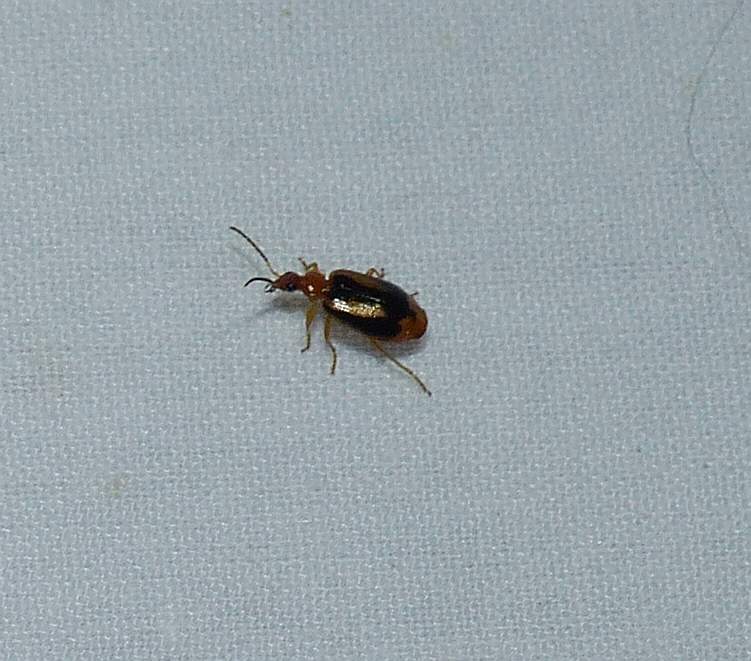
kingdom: Animalia
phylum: Arthropoda
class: Insecta
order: Coleoptera
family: Carabidae
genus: Lebia
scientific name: Lebia solea
